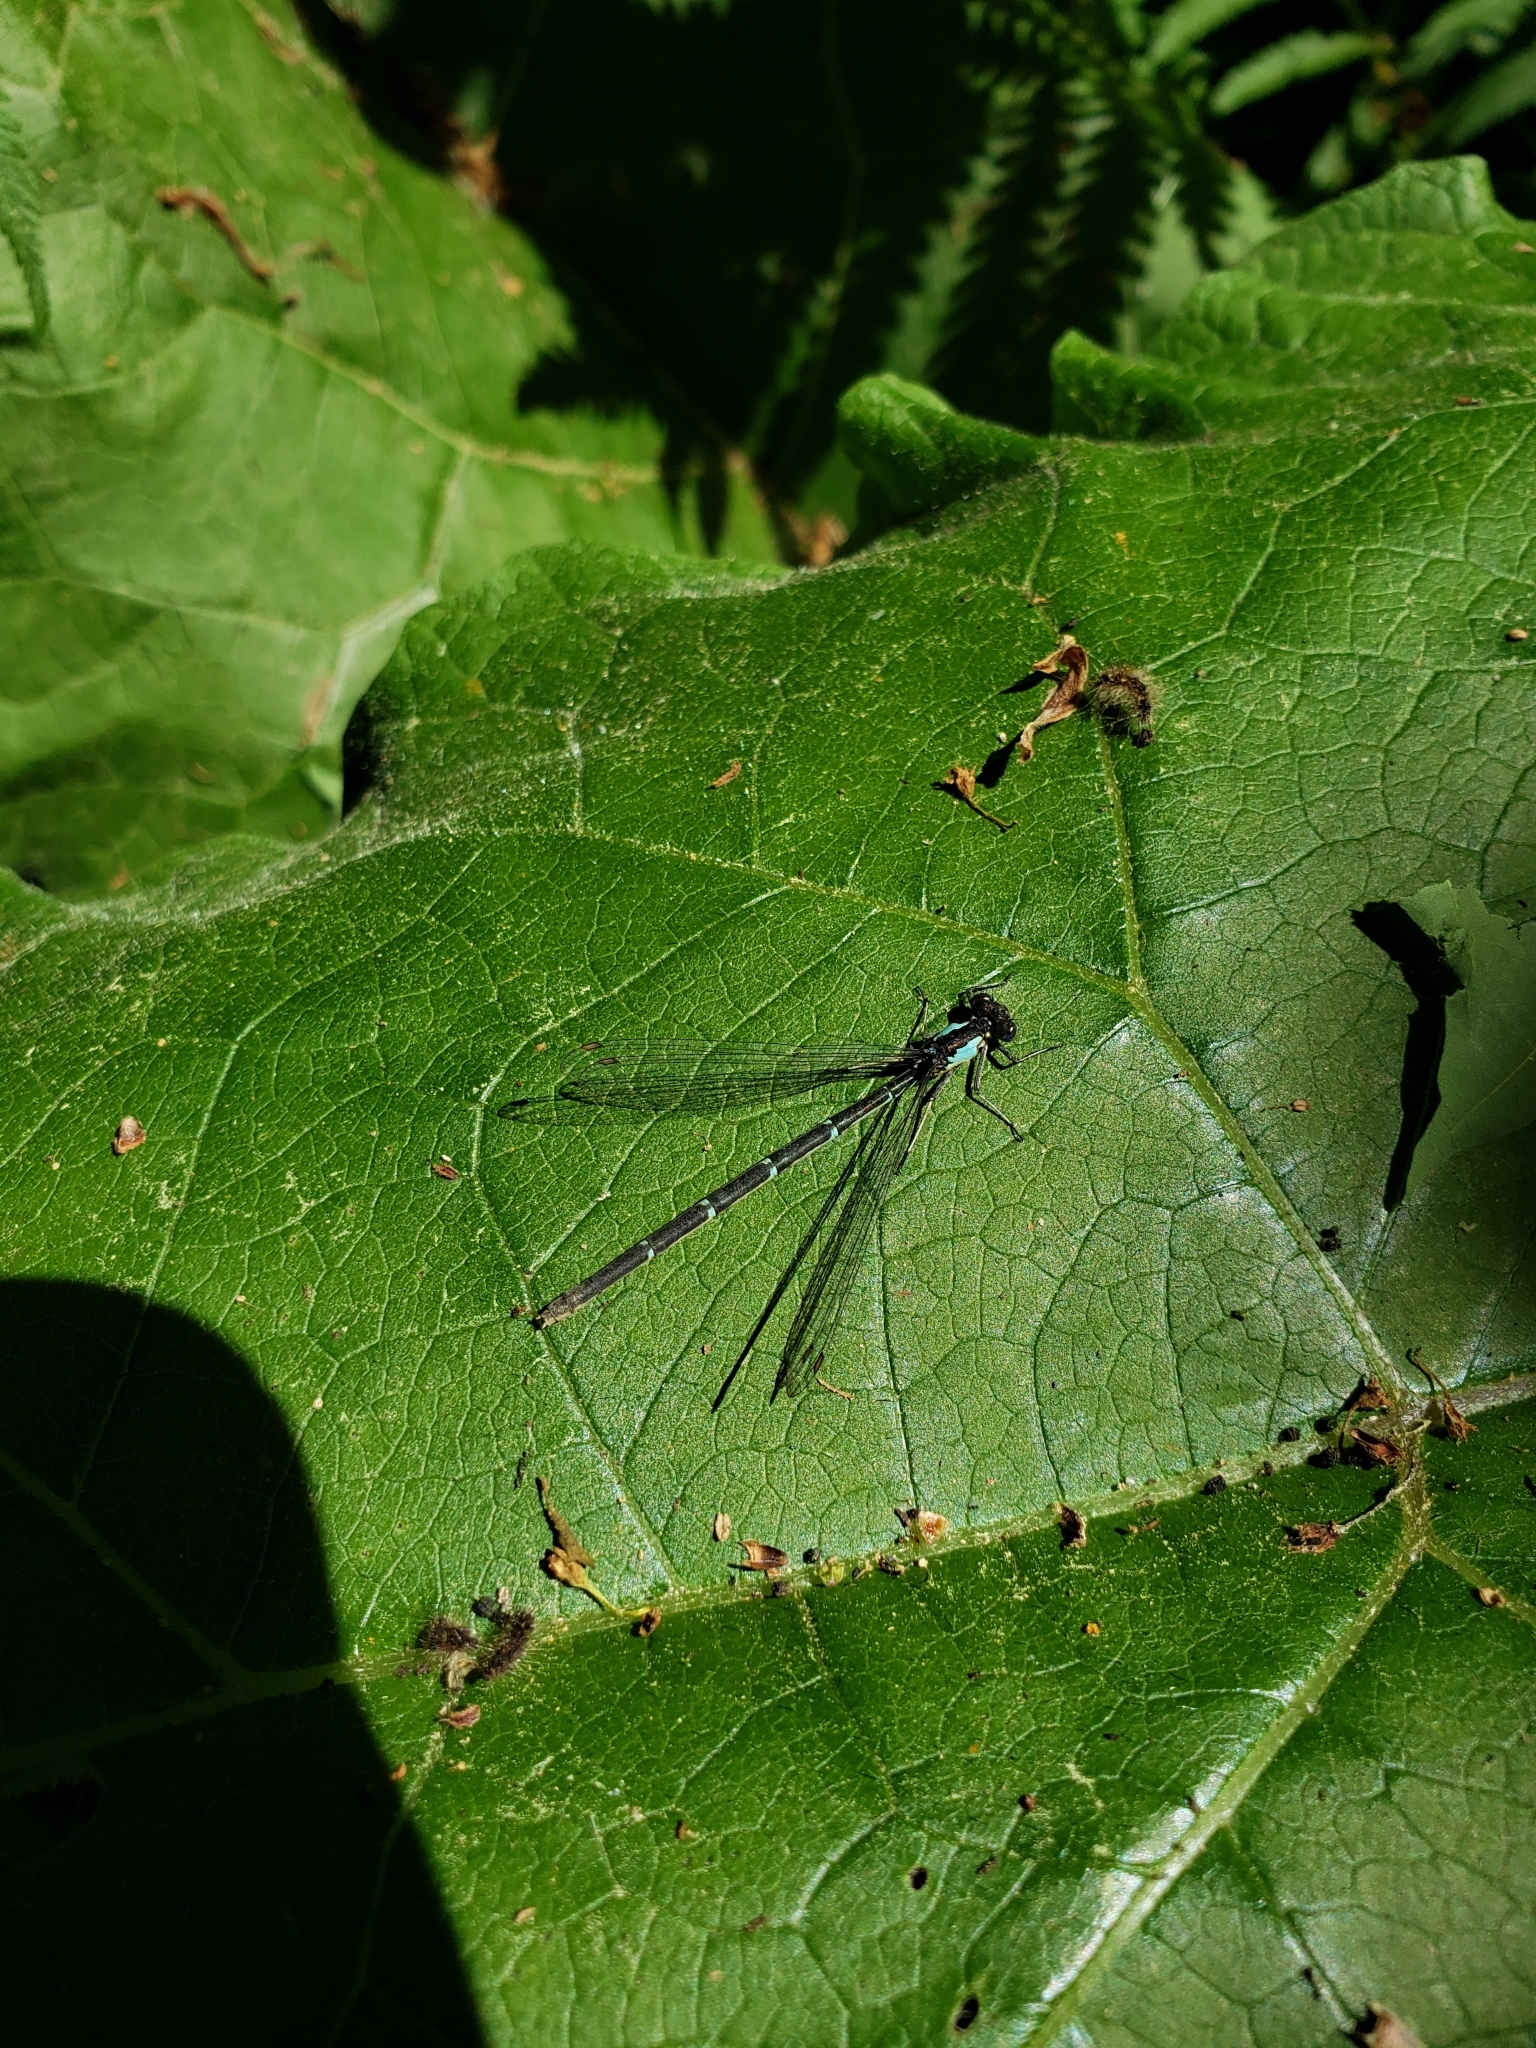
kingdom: Animalia
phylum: Arthropoda
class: Insecta
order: Odonata
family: Coenagrionidae
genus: Chromagrion
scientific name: Chromagrion conditum
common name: Aurora damsel
